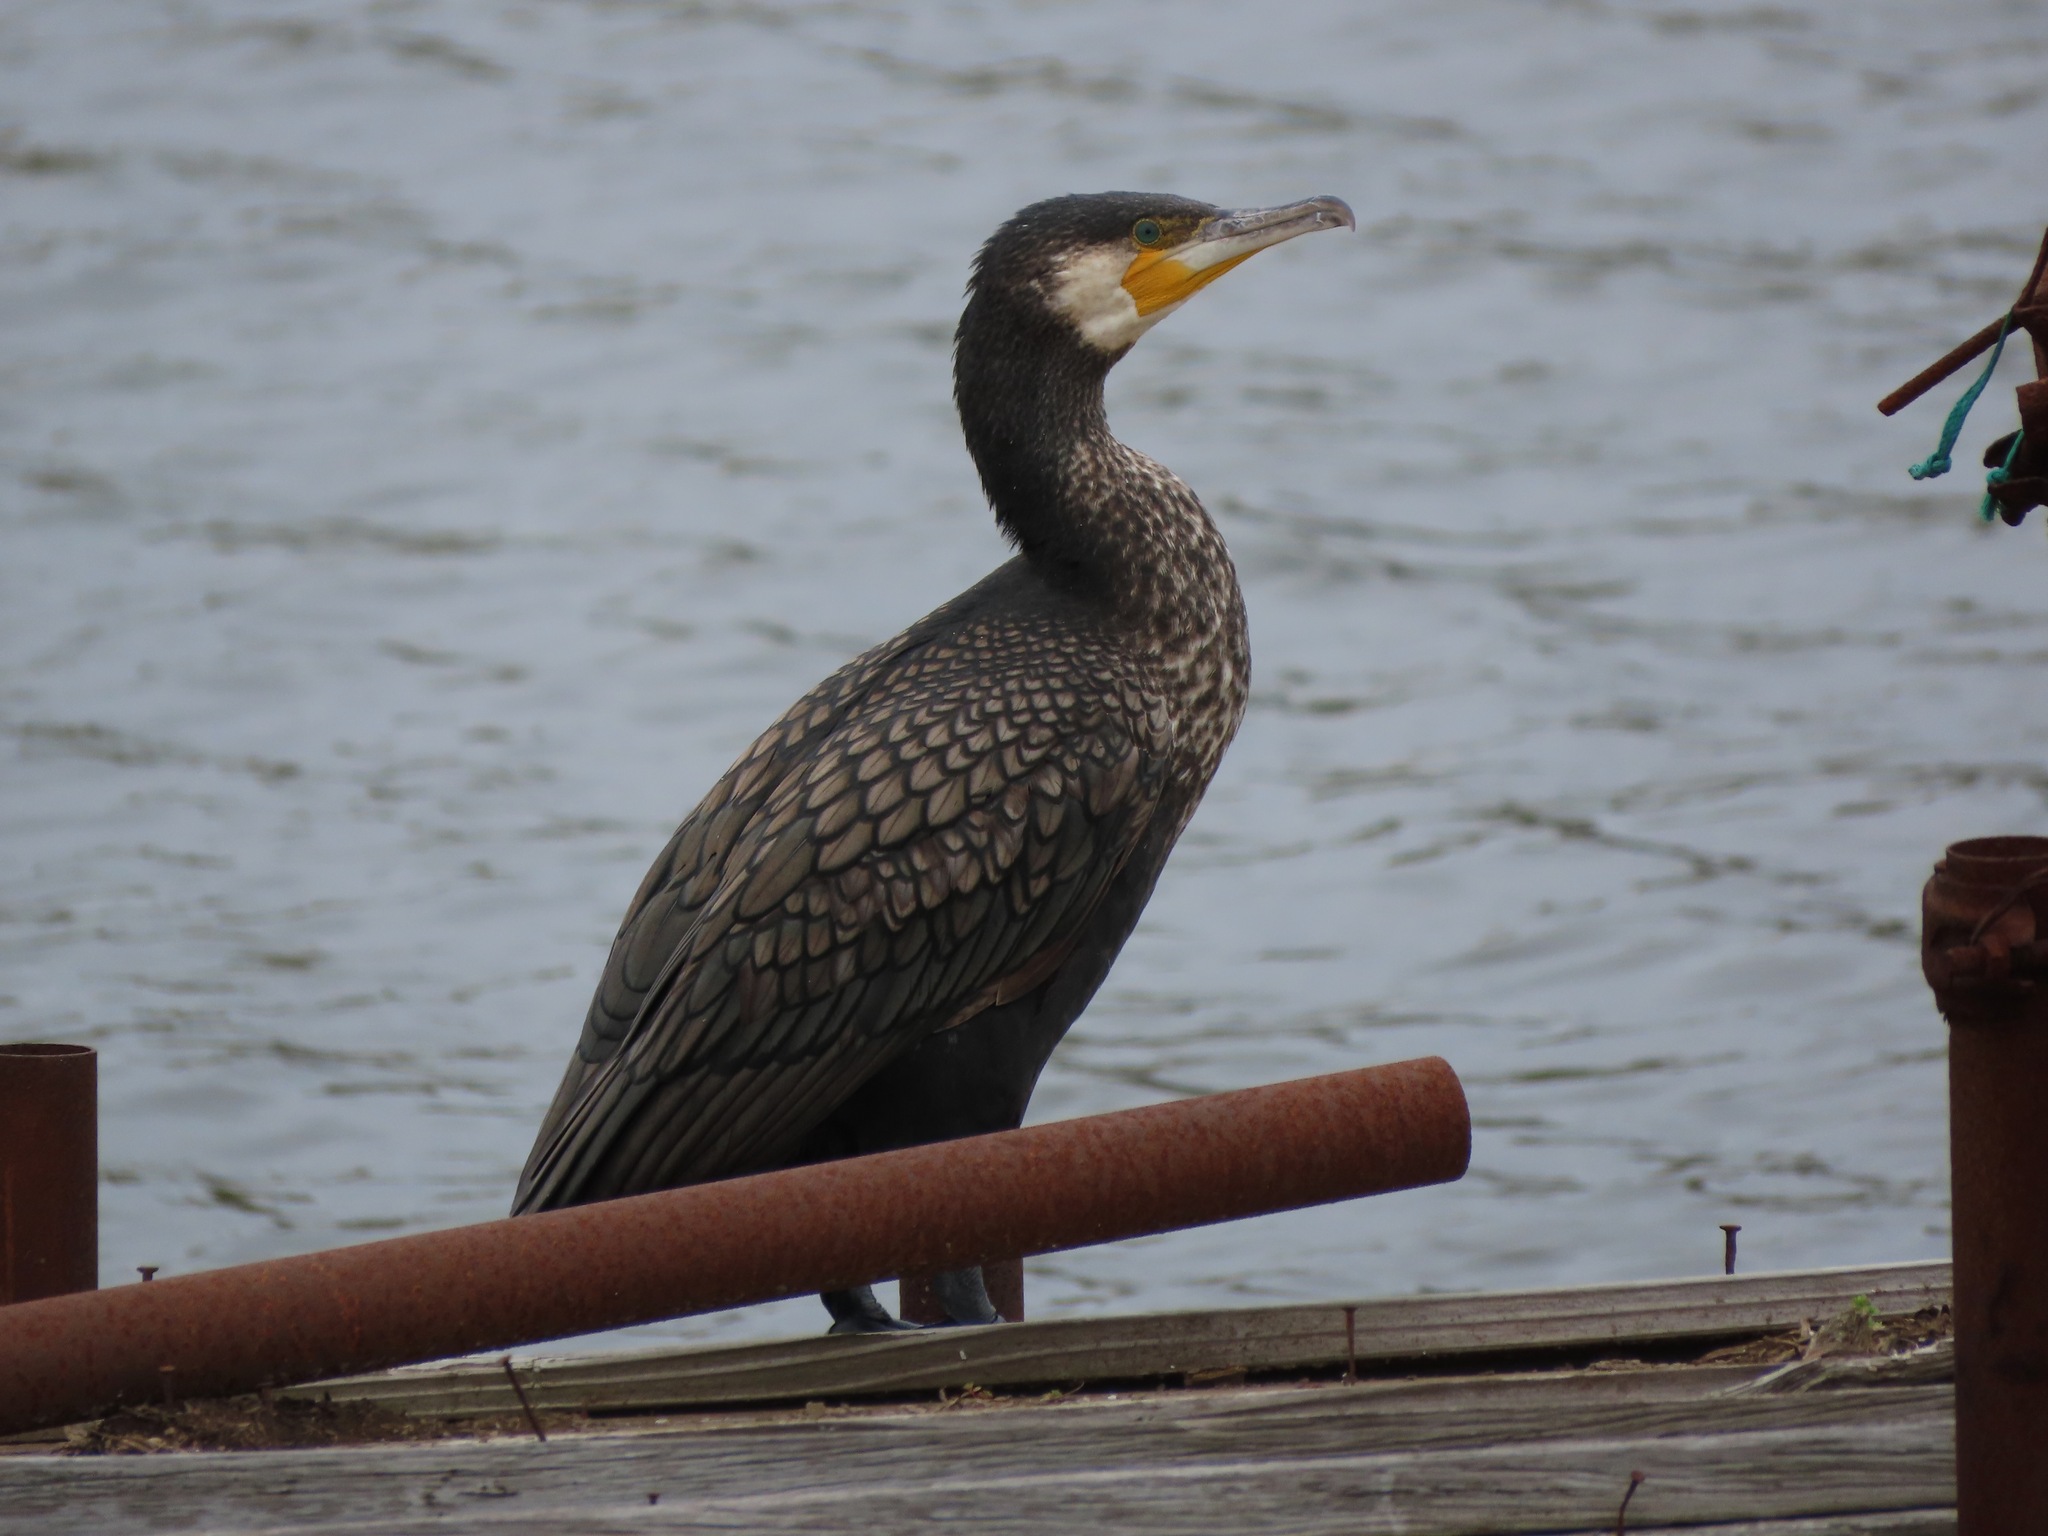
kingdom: Animalia
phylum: Chordata
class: Aves
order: Suliformes
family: Phalacrocoracidae
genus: Phalacrocorax
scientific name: Phalacrocorax carbo
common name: Great cormorant
